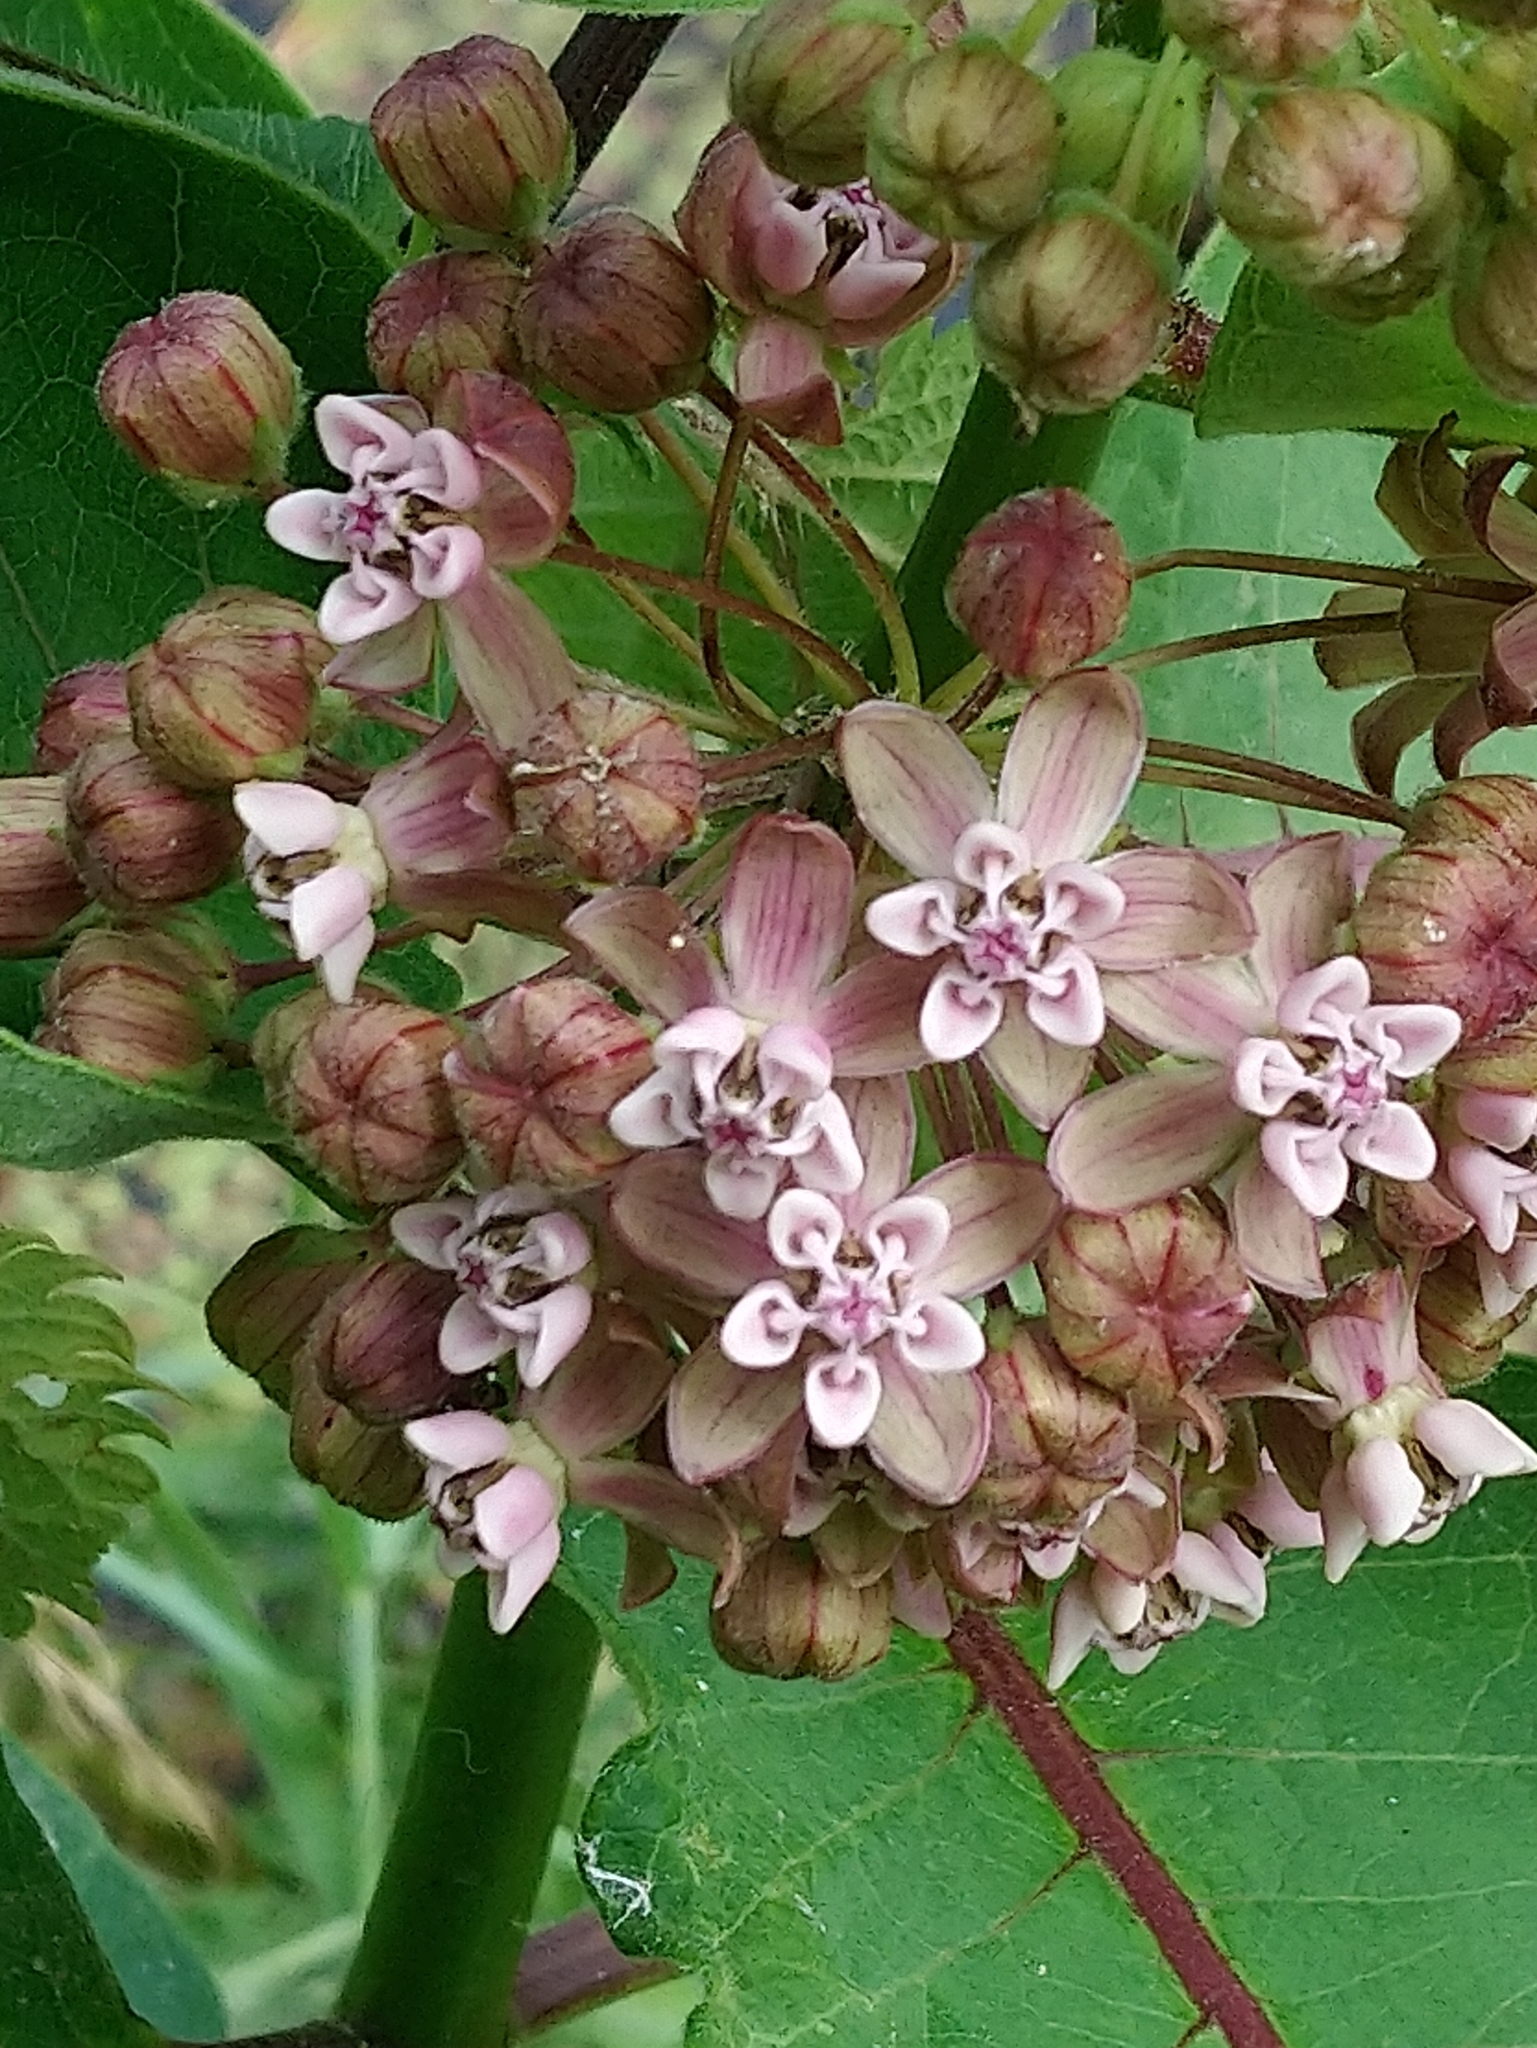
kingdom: Plantae
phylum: Tracheophyta
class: Magnoliopsida
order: Gentianales
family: Apocynaceae
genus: Asclepias
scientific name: Asclepias syriaca
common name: Common milkweed
